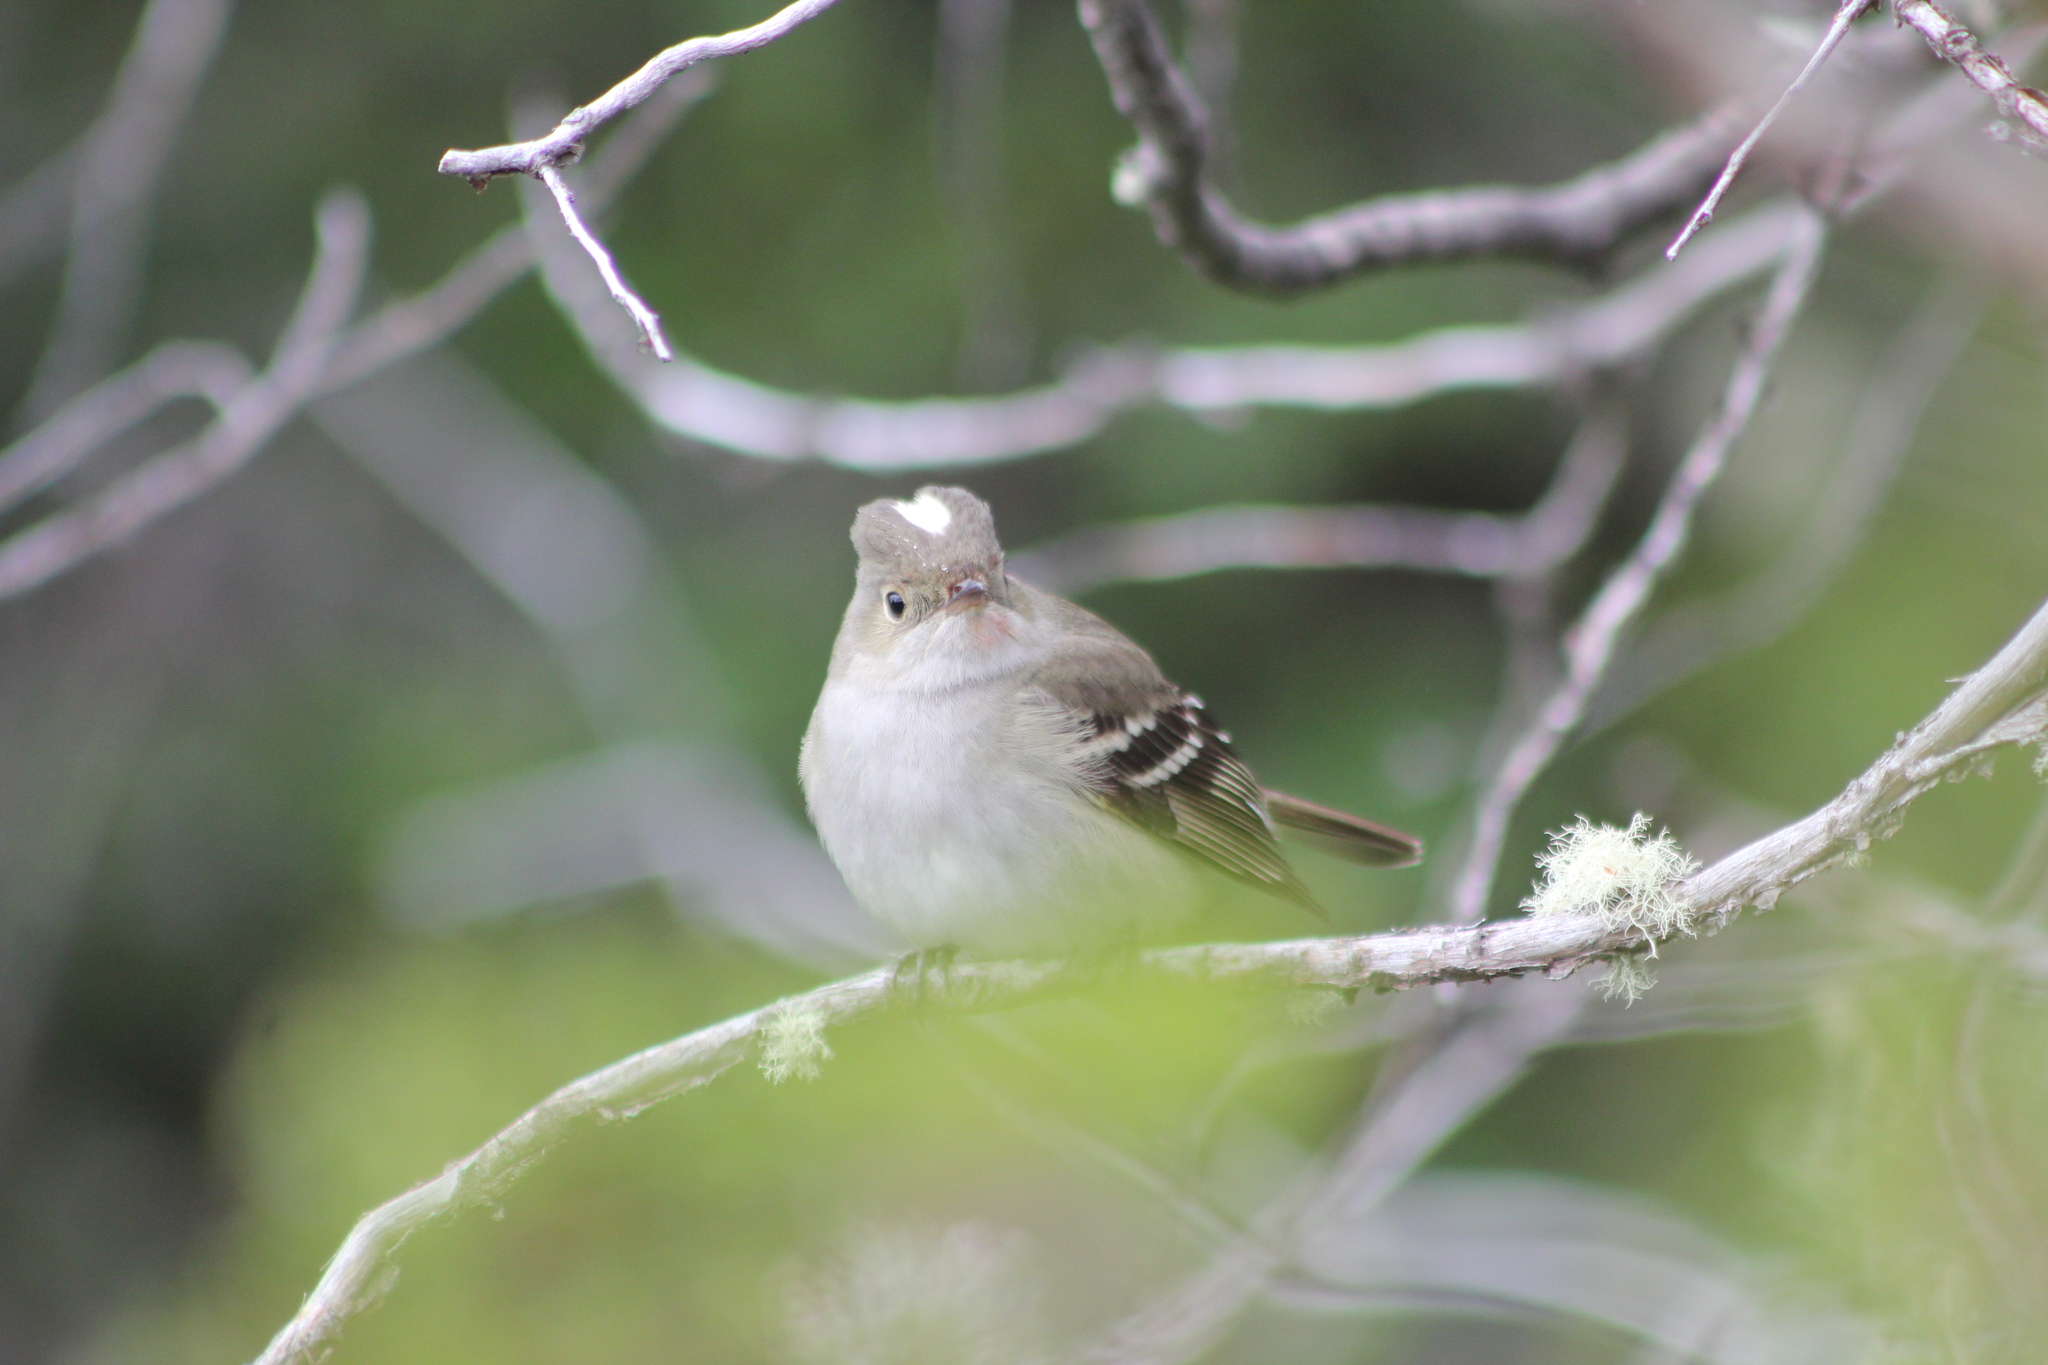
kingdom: Animalia
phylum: Chordata
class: Aves
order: Passeriformes
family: Tyrannidae
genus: Elaenia
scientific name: Elaenia albiceps
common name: White-crested elaenia
